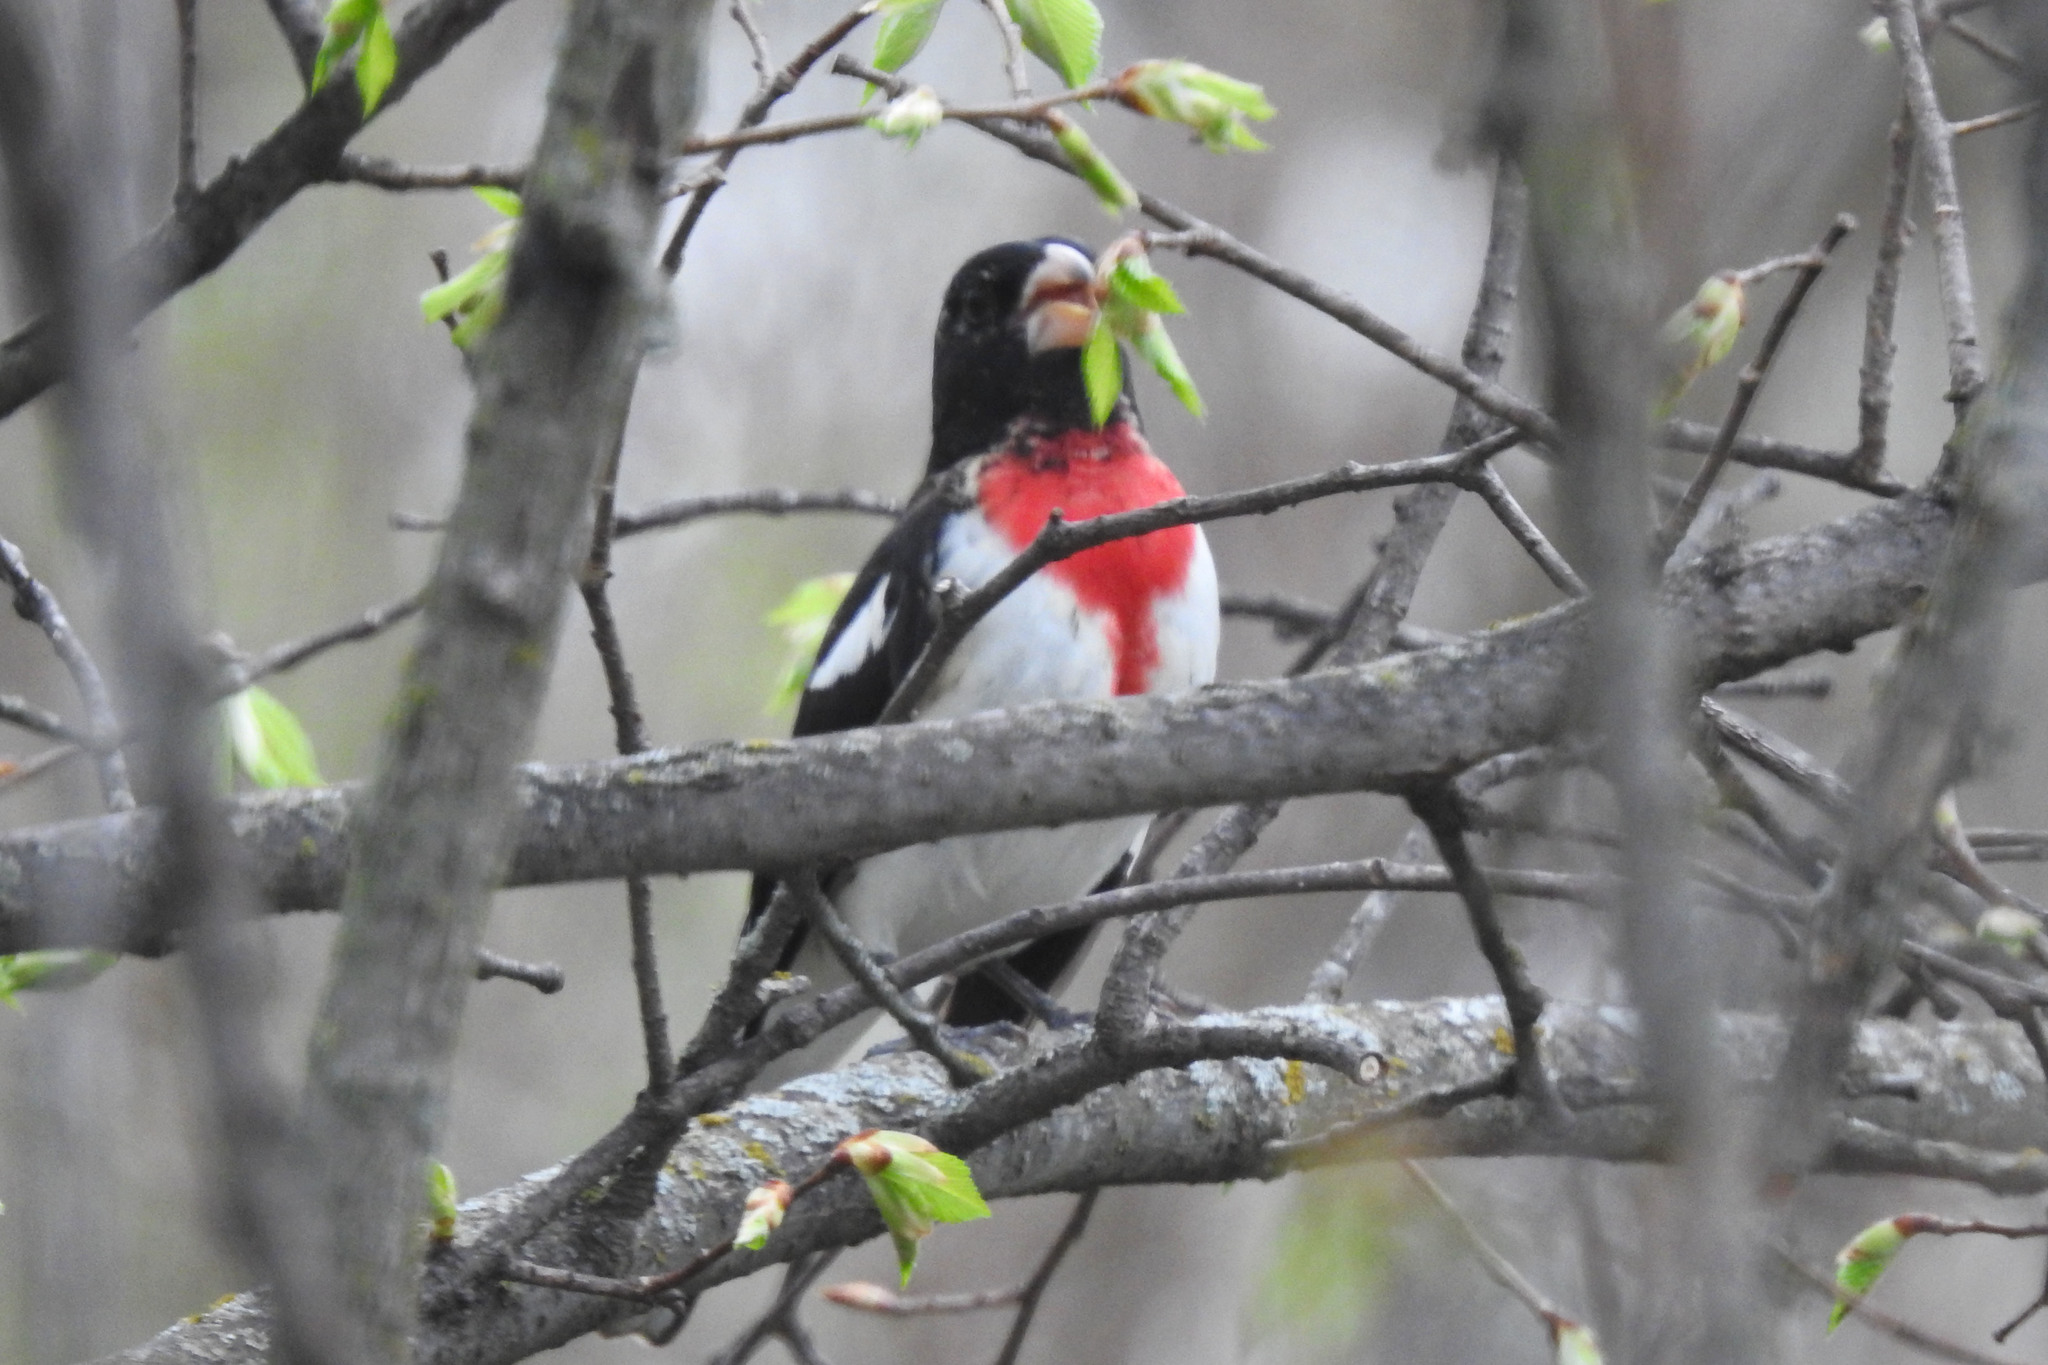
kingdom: Animalia
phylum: Chordata
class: Aves
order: Passeriformes
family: Cardinalidae
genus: Pheucticus
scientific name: Pheucticus ludovicianus
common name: Rose-breasted grosbeak
